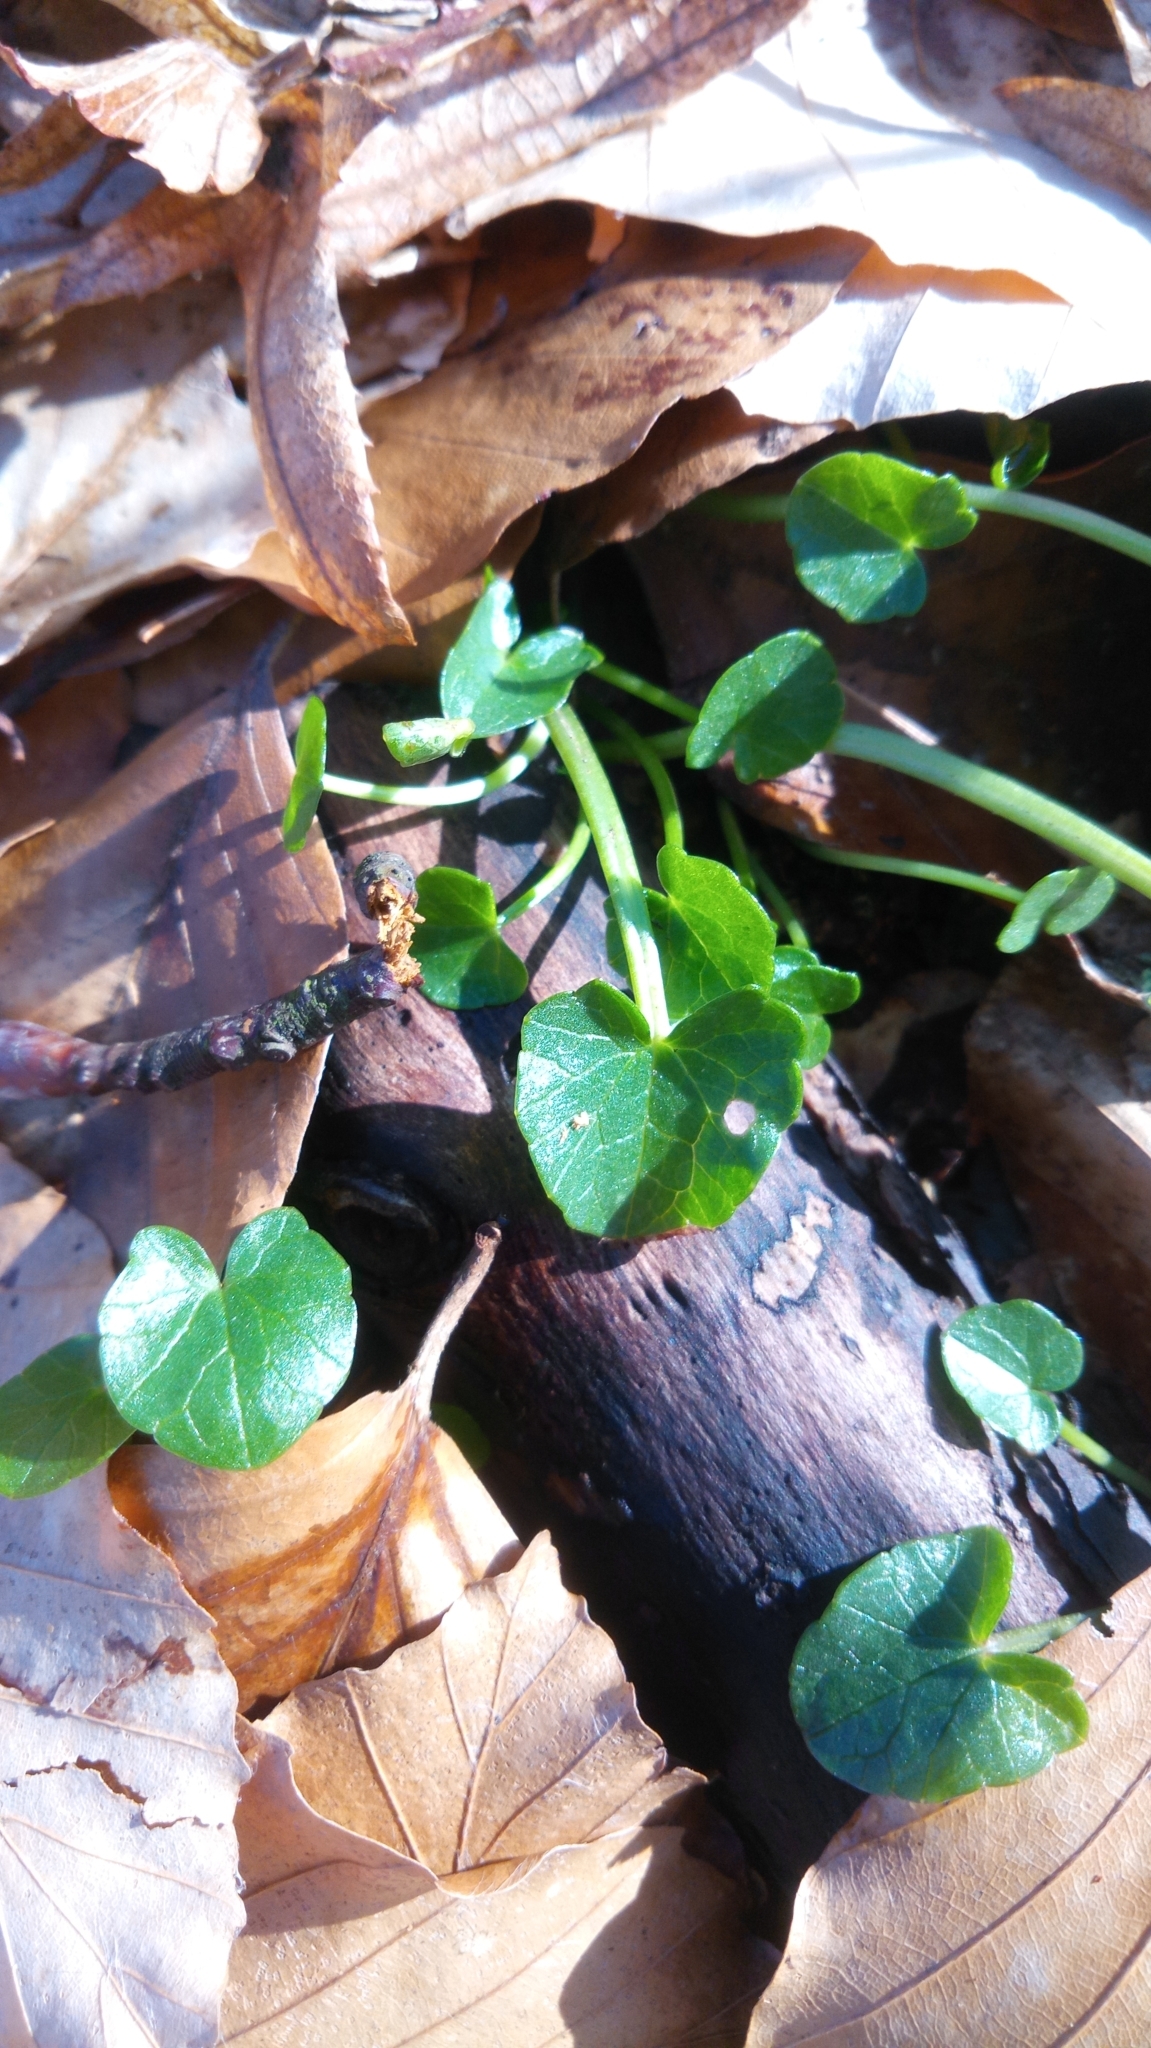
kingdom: Plantae
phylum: Tracheophyta
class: Magnoliopsida
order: Ranunculales
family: Ranunculaceae
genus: Ficaria
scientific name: Ficaria verna
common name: Lesser celandine
